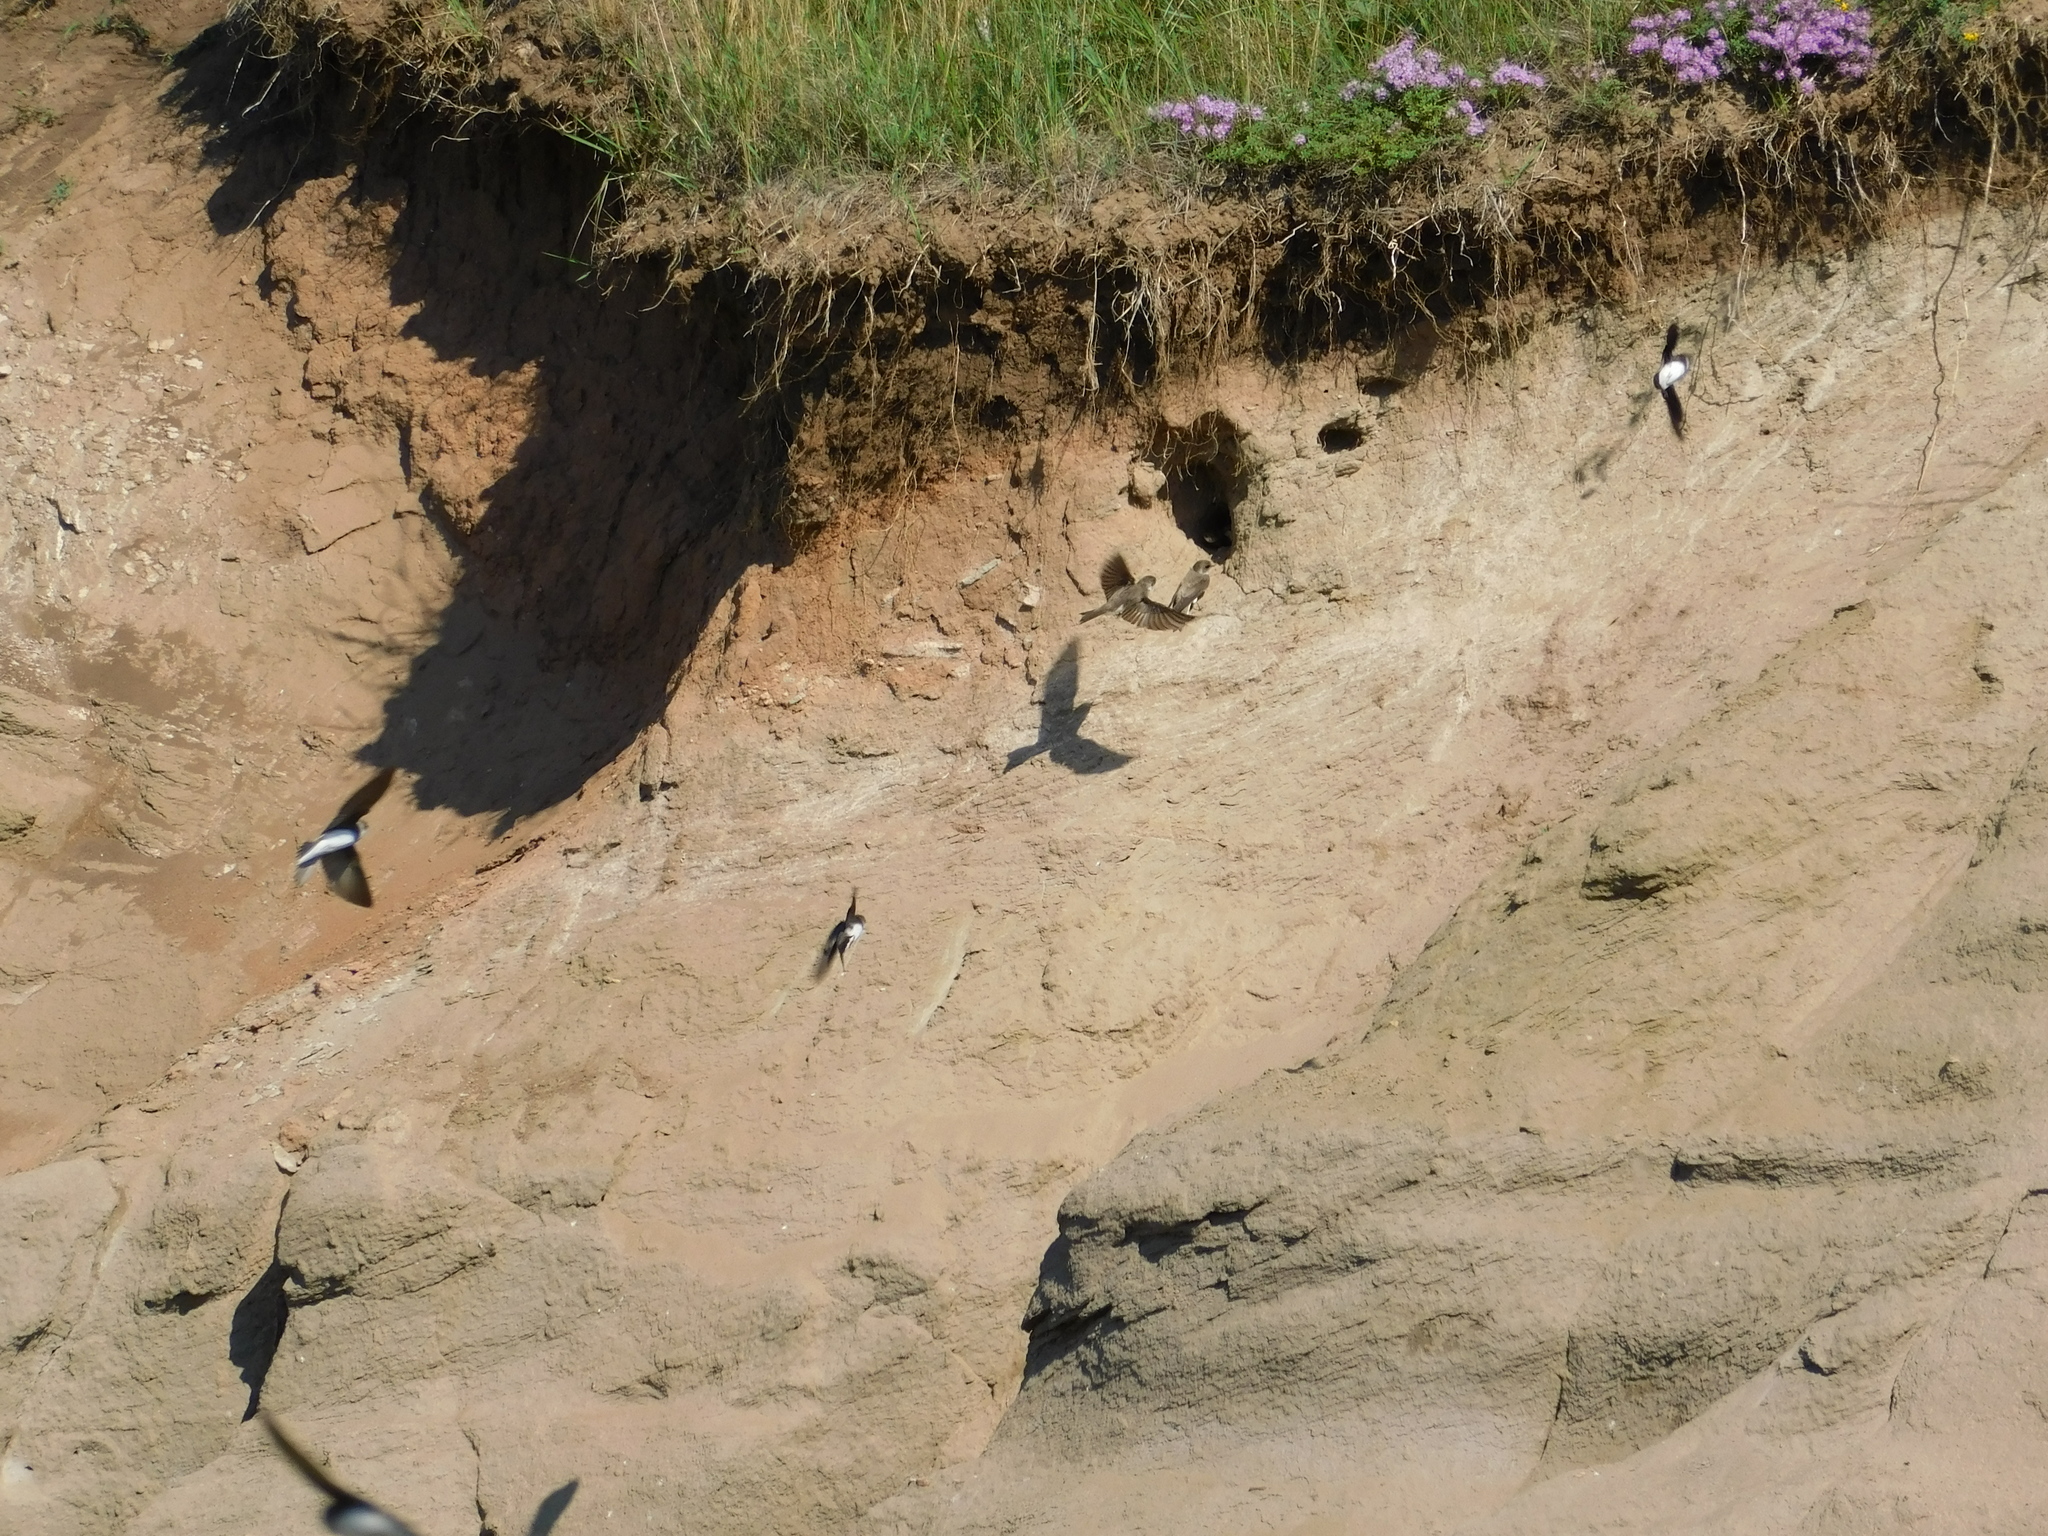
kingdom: Animalia
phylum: Chordata
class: Aves
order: Passeriformes
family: Hirundinidae
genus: Riparia
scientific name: Riparia riparia
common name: Sand martin
